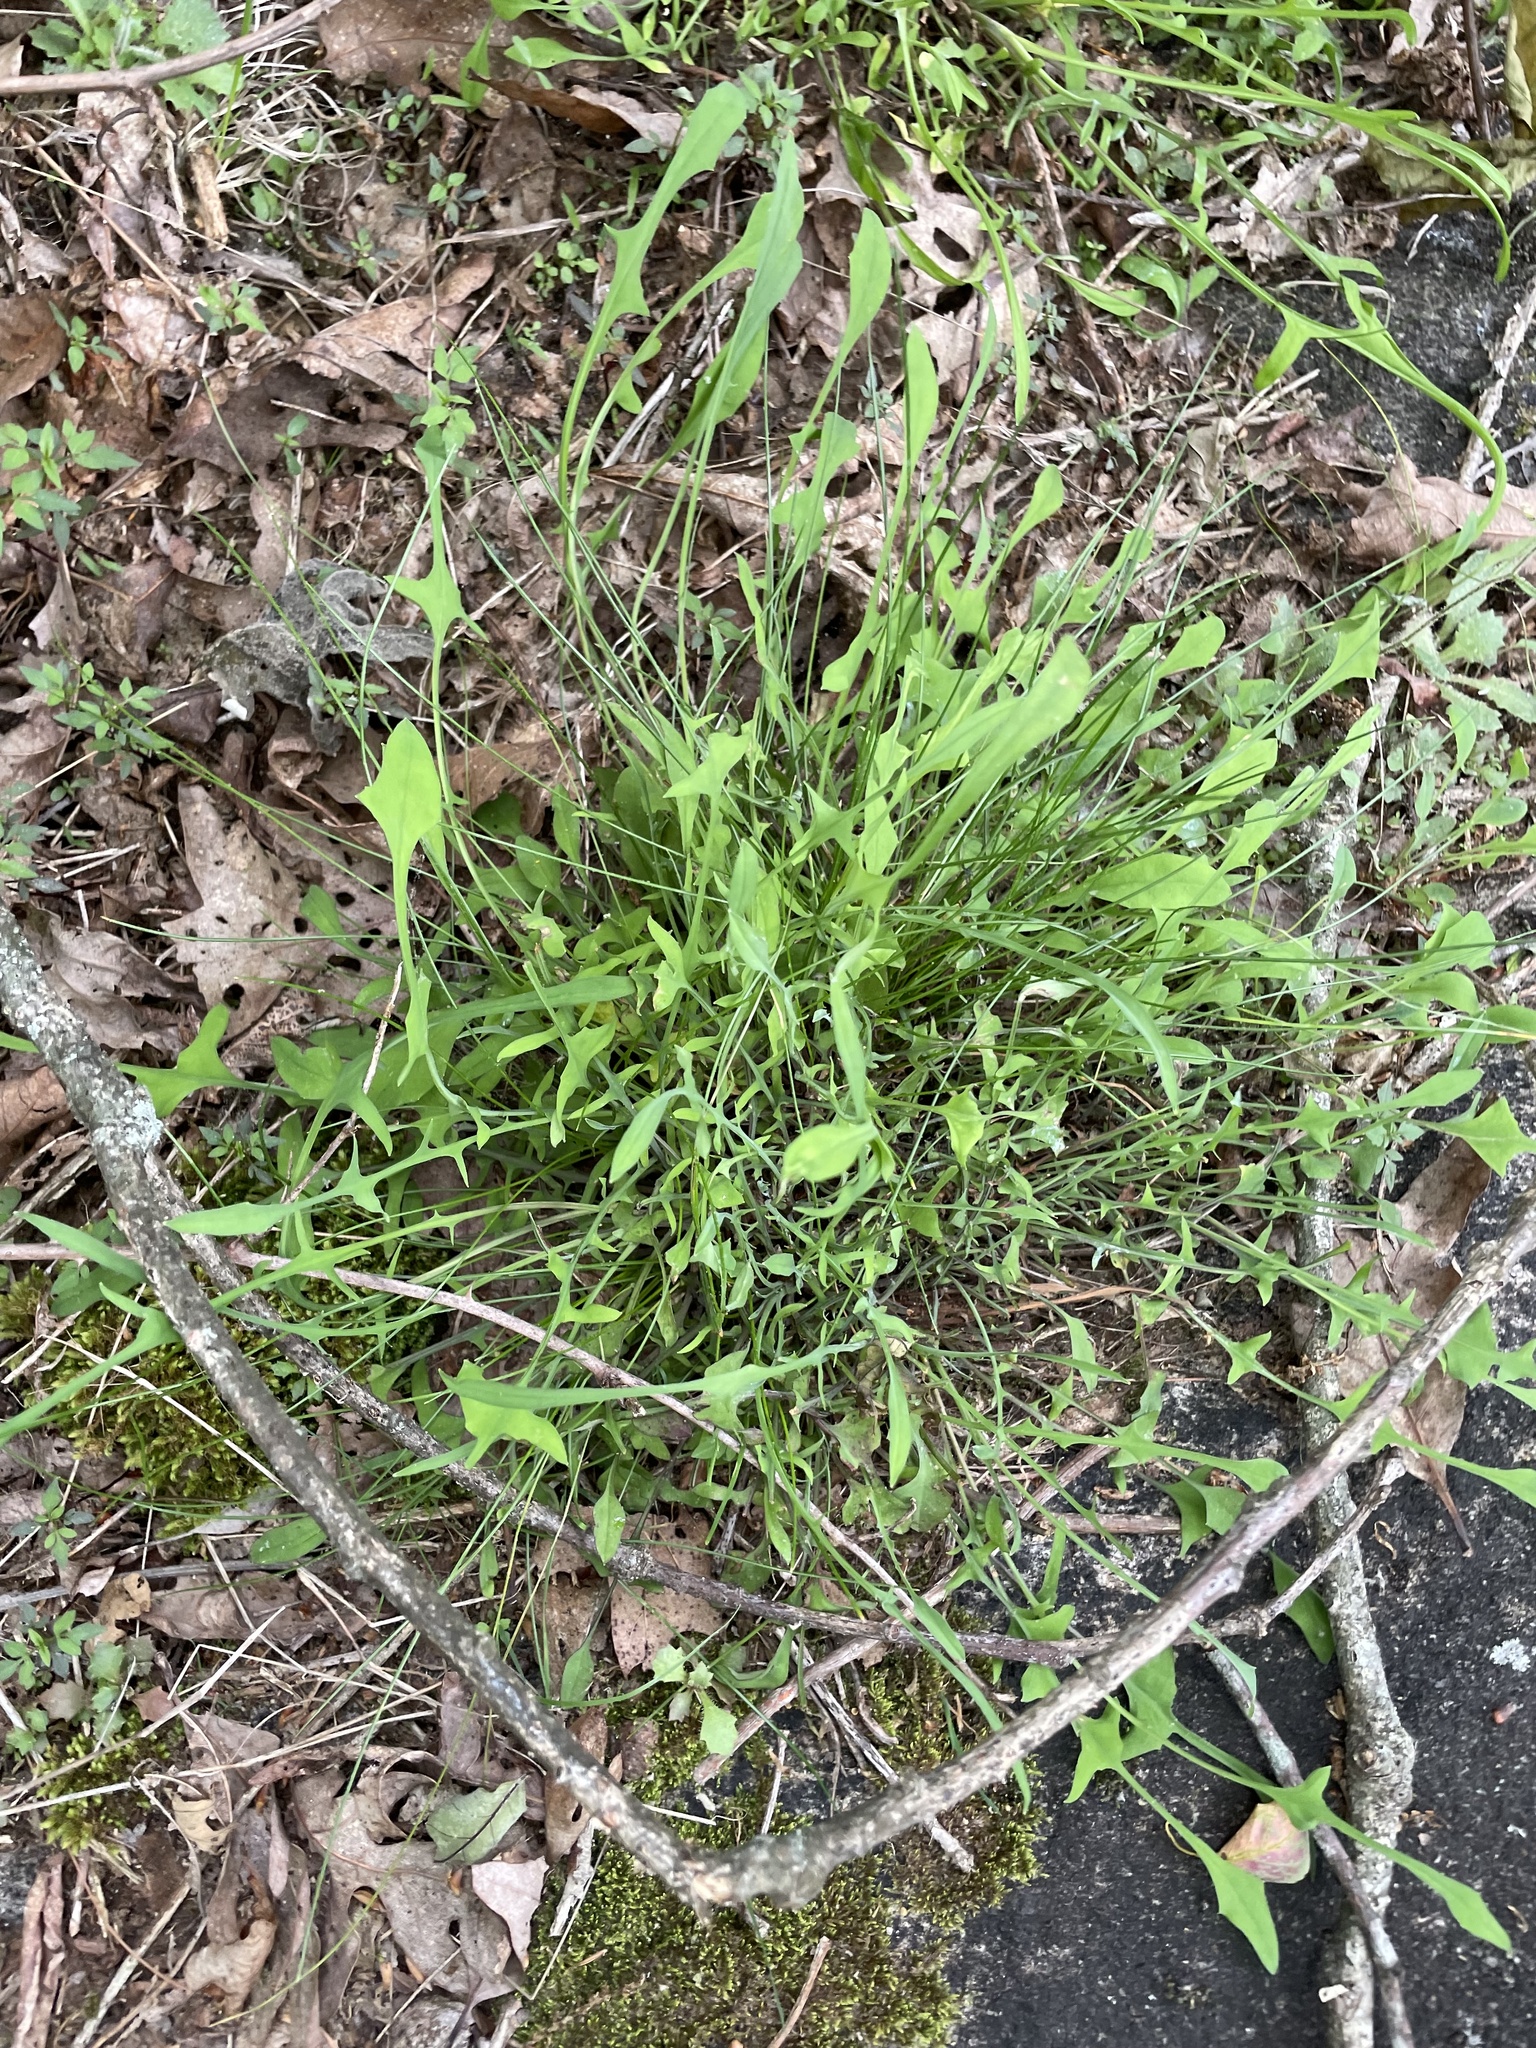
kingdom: Plantae
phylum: Tracheophyta
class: Magnoliopsida
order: Asterales
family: Asteraceae
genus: Krigia
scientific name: Krigia montana
